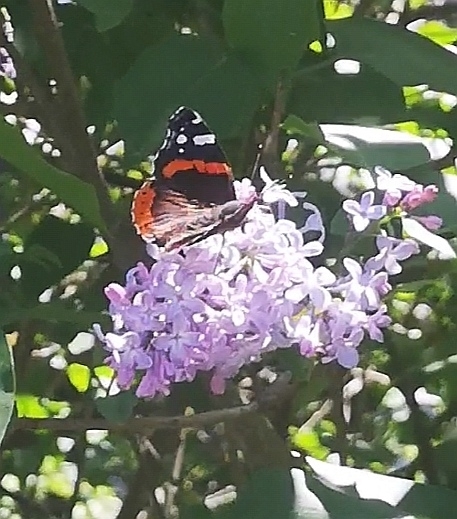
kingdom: Animalia
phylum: Arthropoda
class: Insecta
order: Lepidoptera
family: Nymphalidae
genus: Vanessa
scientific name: Vanessa atalanta
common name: Red admiral
